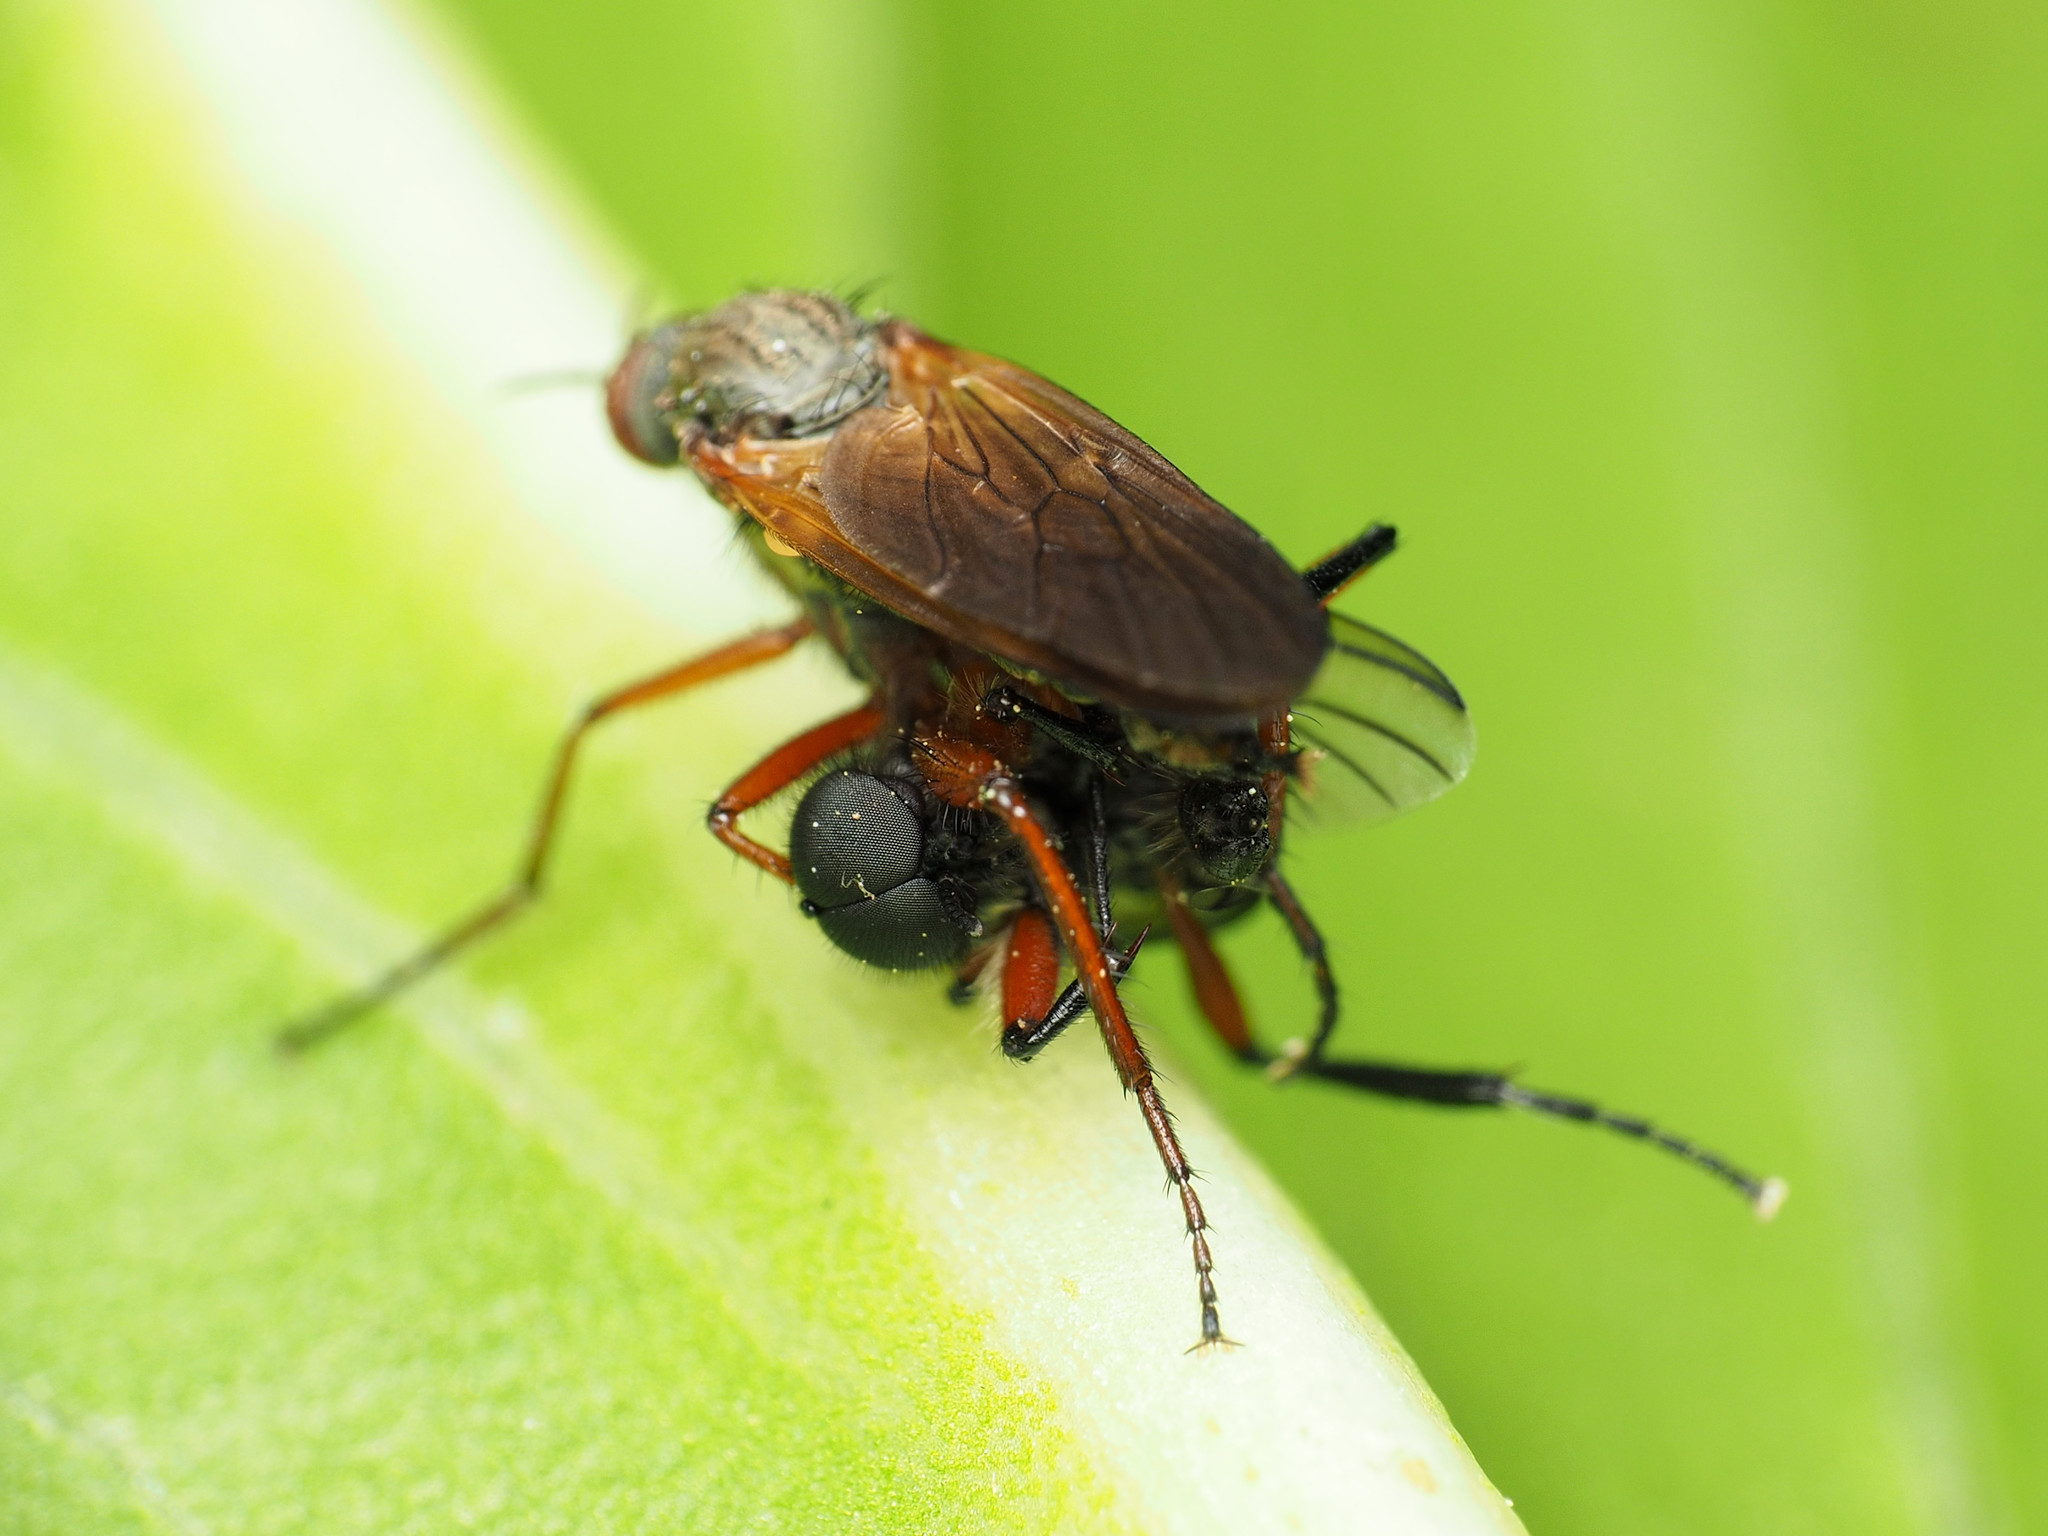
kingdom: Animalia
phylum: Arthropoda
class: Insecta
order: Diptera
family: Bibionidae
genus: Bibio
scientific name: Bibio femoratus
